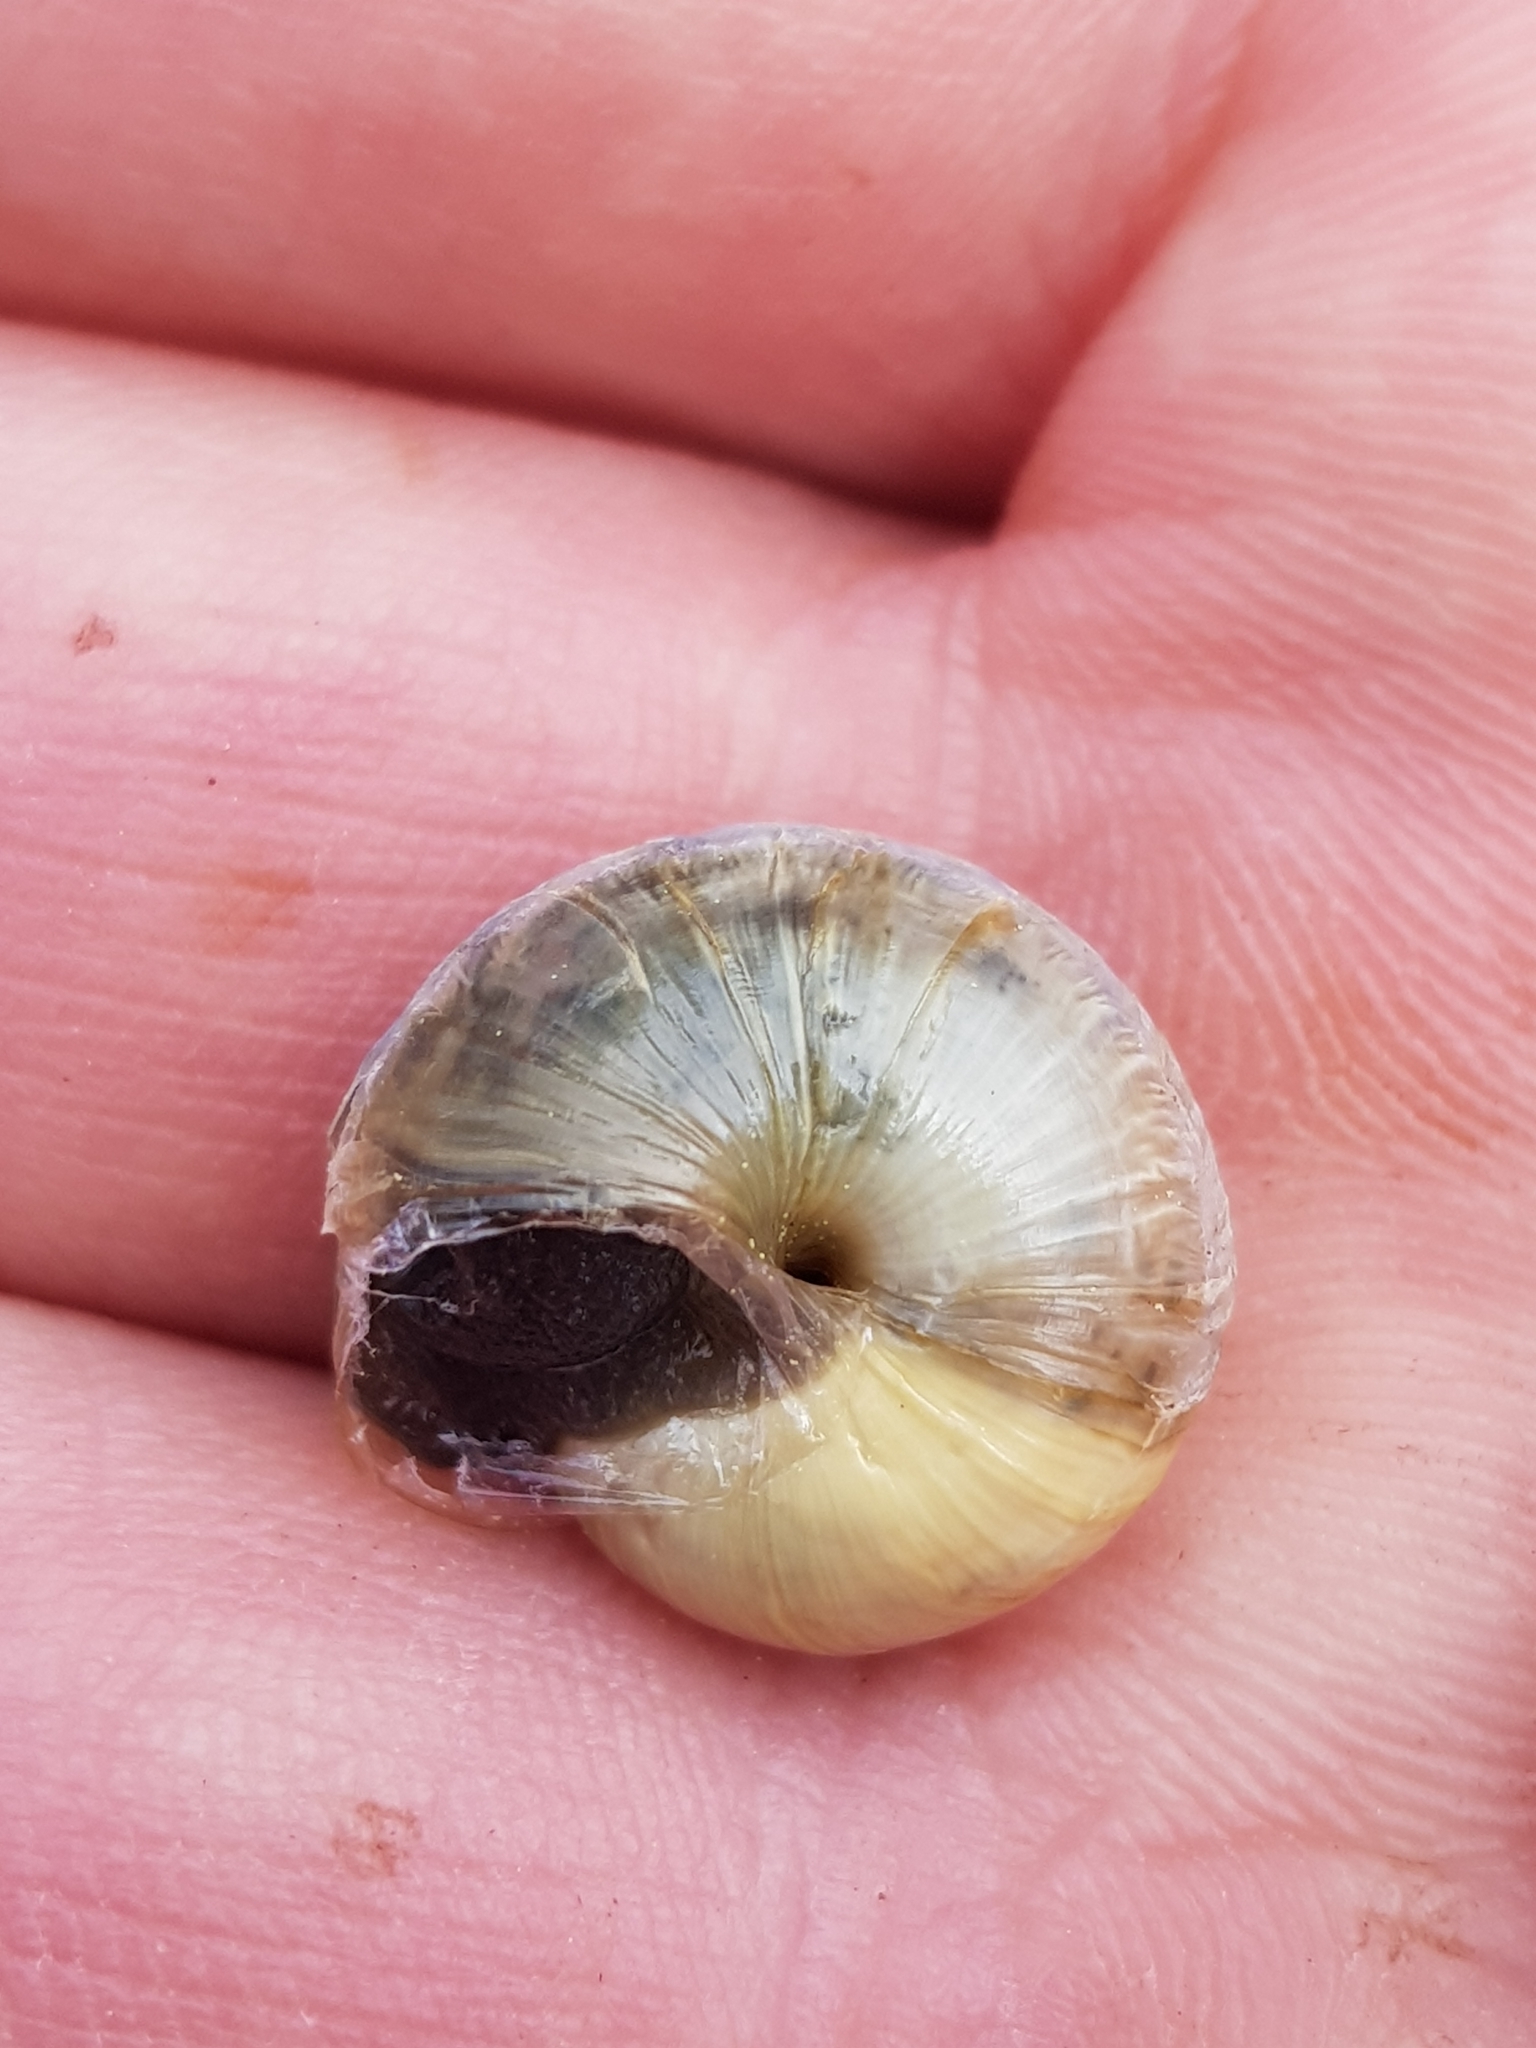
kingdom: Animalia
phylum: Mollusca
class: Gastropoda
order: Stylommatophora
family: Helicidae
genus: Arianta
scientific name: Arianta arbustorum
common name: Copse snail
